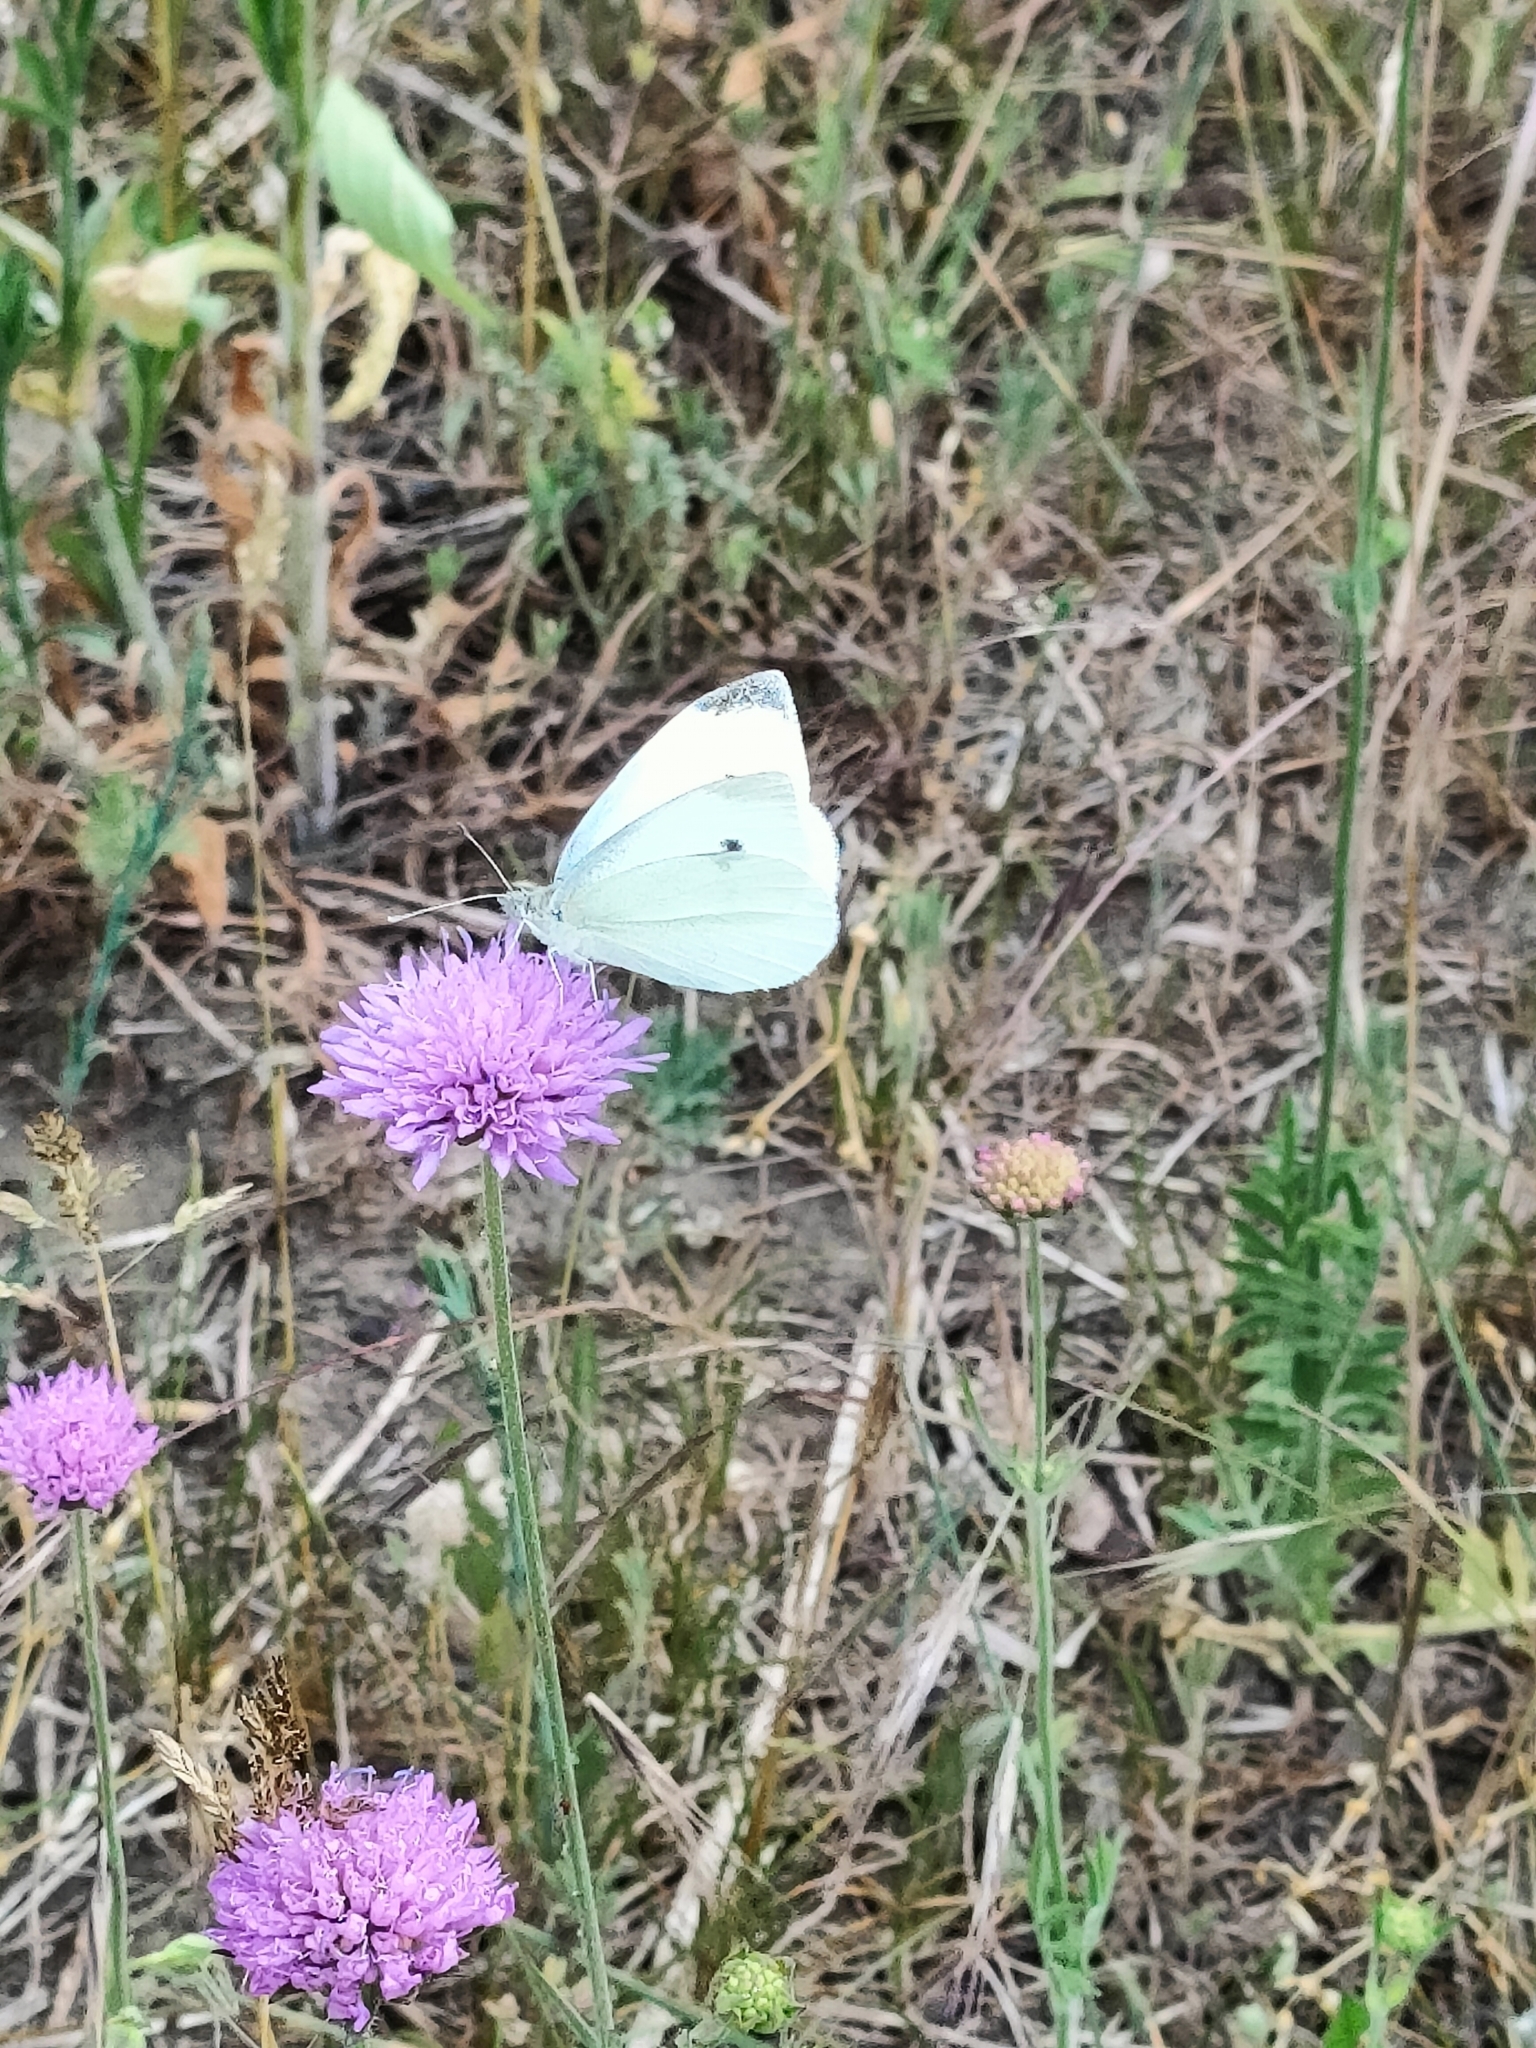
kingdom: Animalia
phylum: Arthropoda
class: Insecta
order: Lepidoptera
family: Pieridae
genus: Pieris
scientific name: Pieris rapae
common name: Small white
